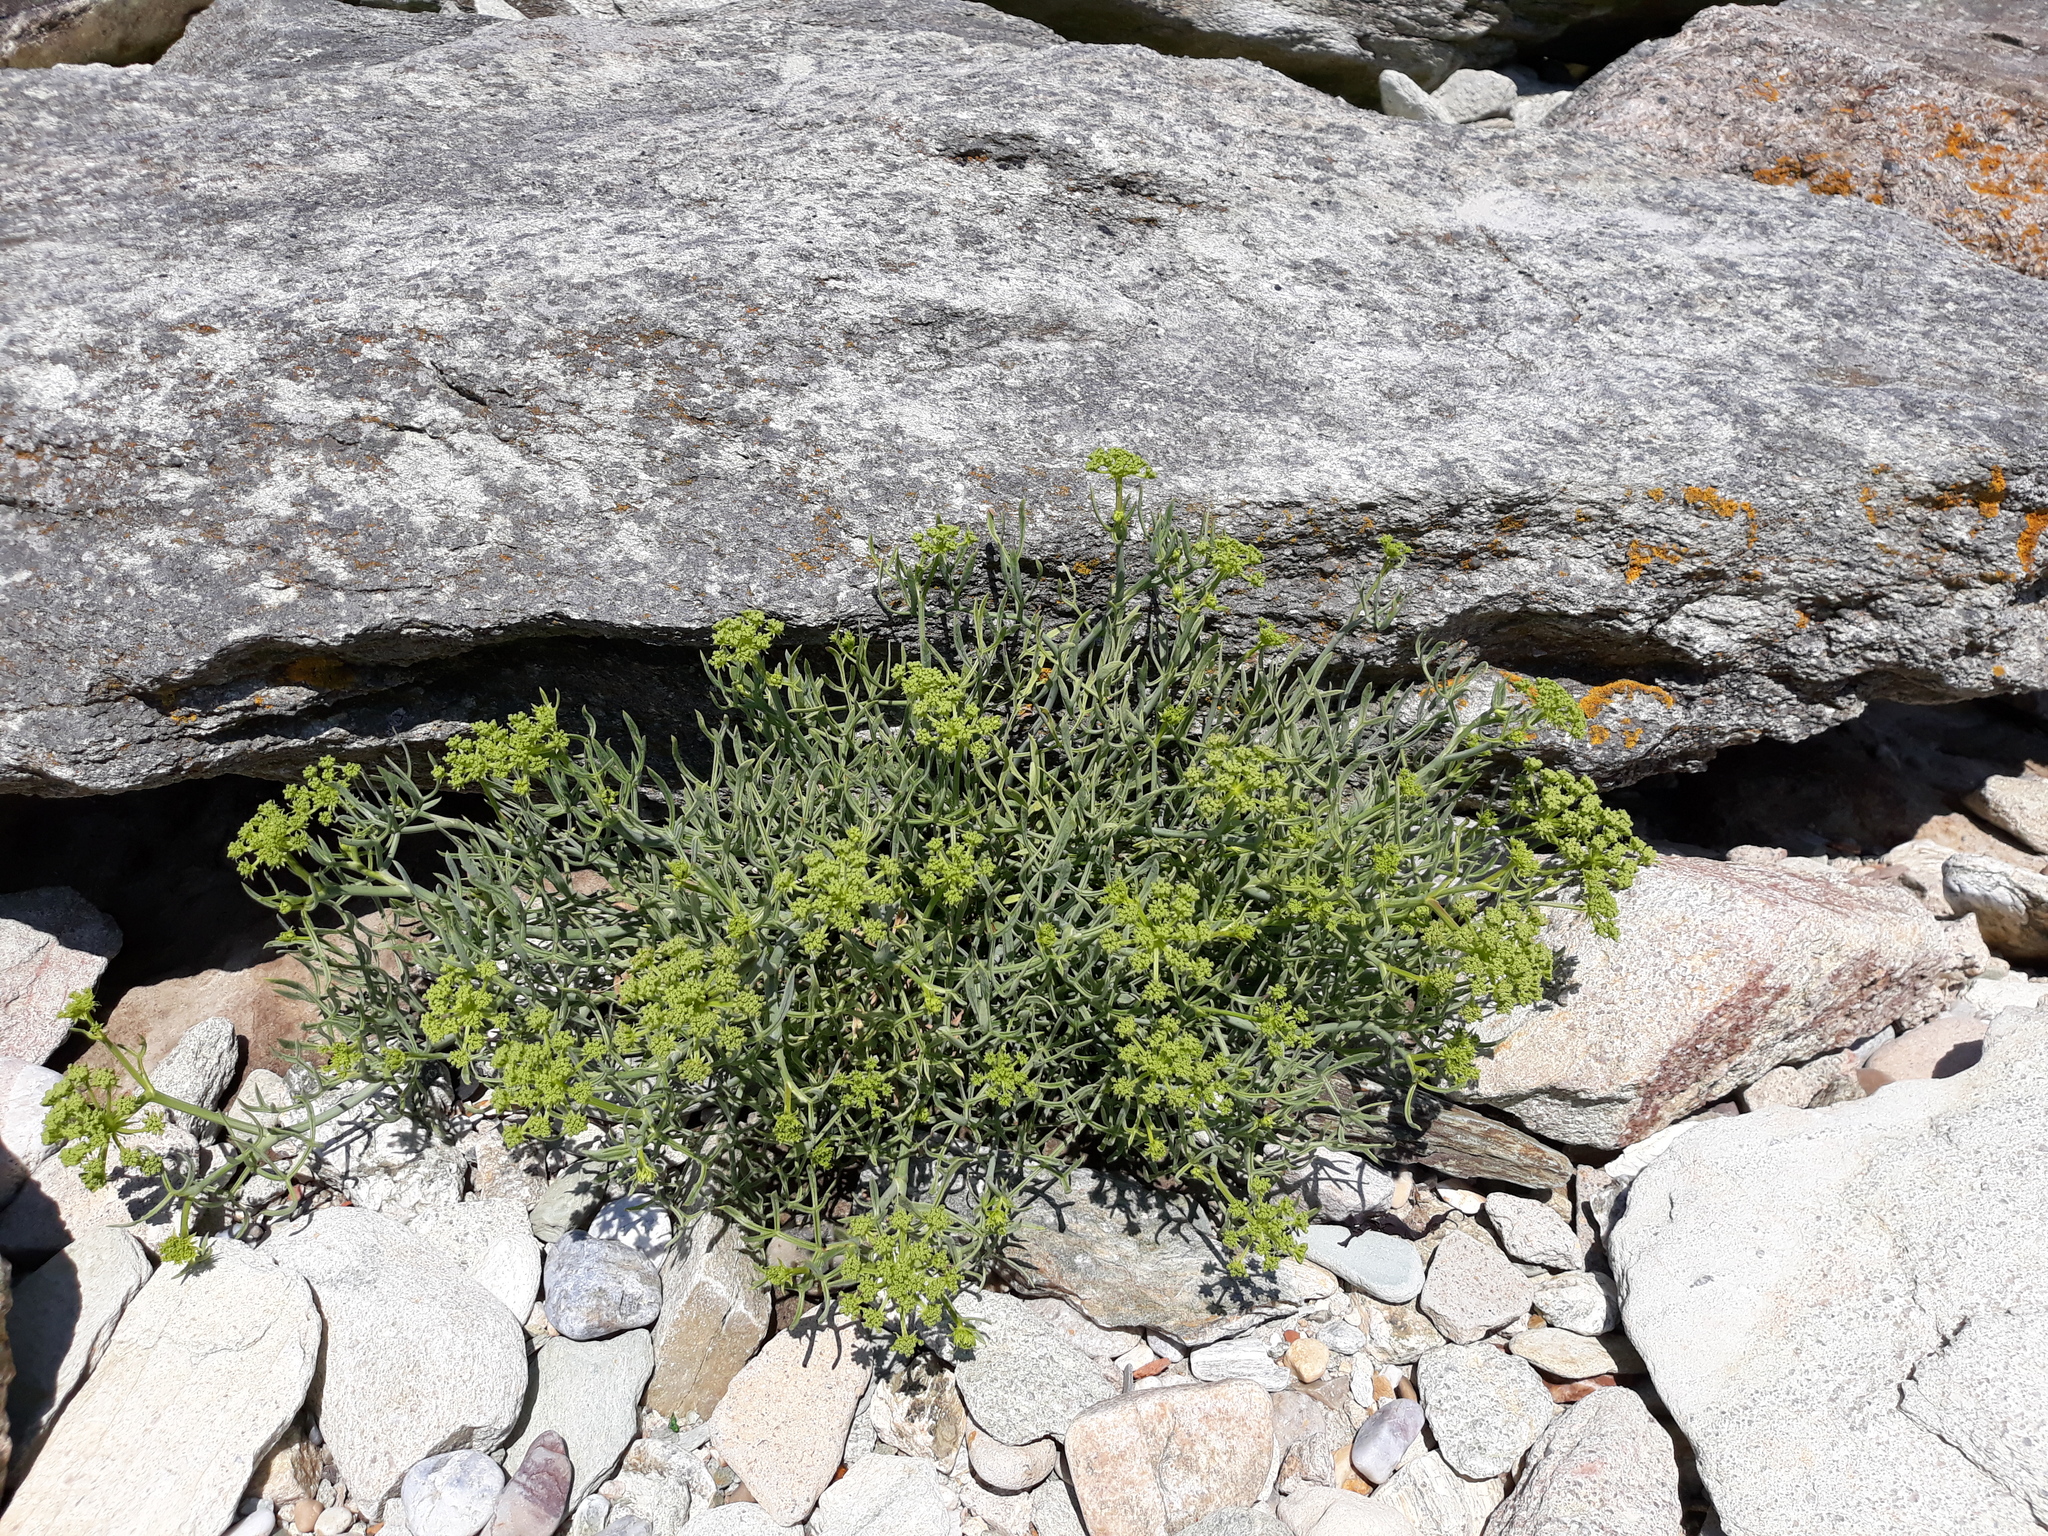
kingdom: Plantae
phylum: Tracheophyta
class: Magnoliopsida
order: Apiales
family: Apiaceae
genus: Crithmum
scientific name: Crithmum maritimum
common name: Rock samphire
